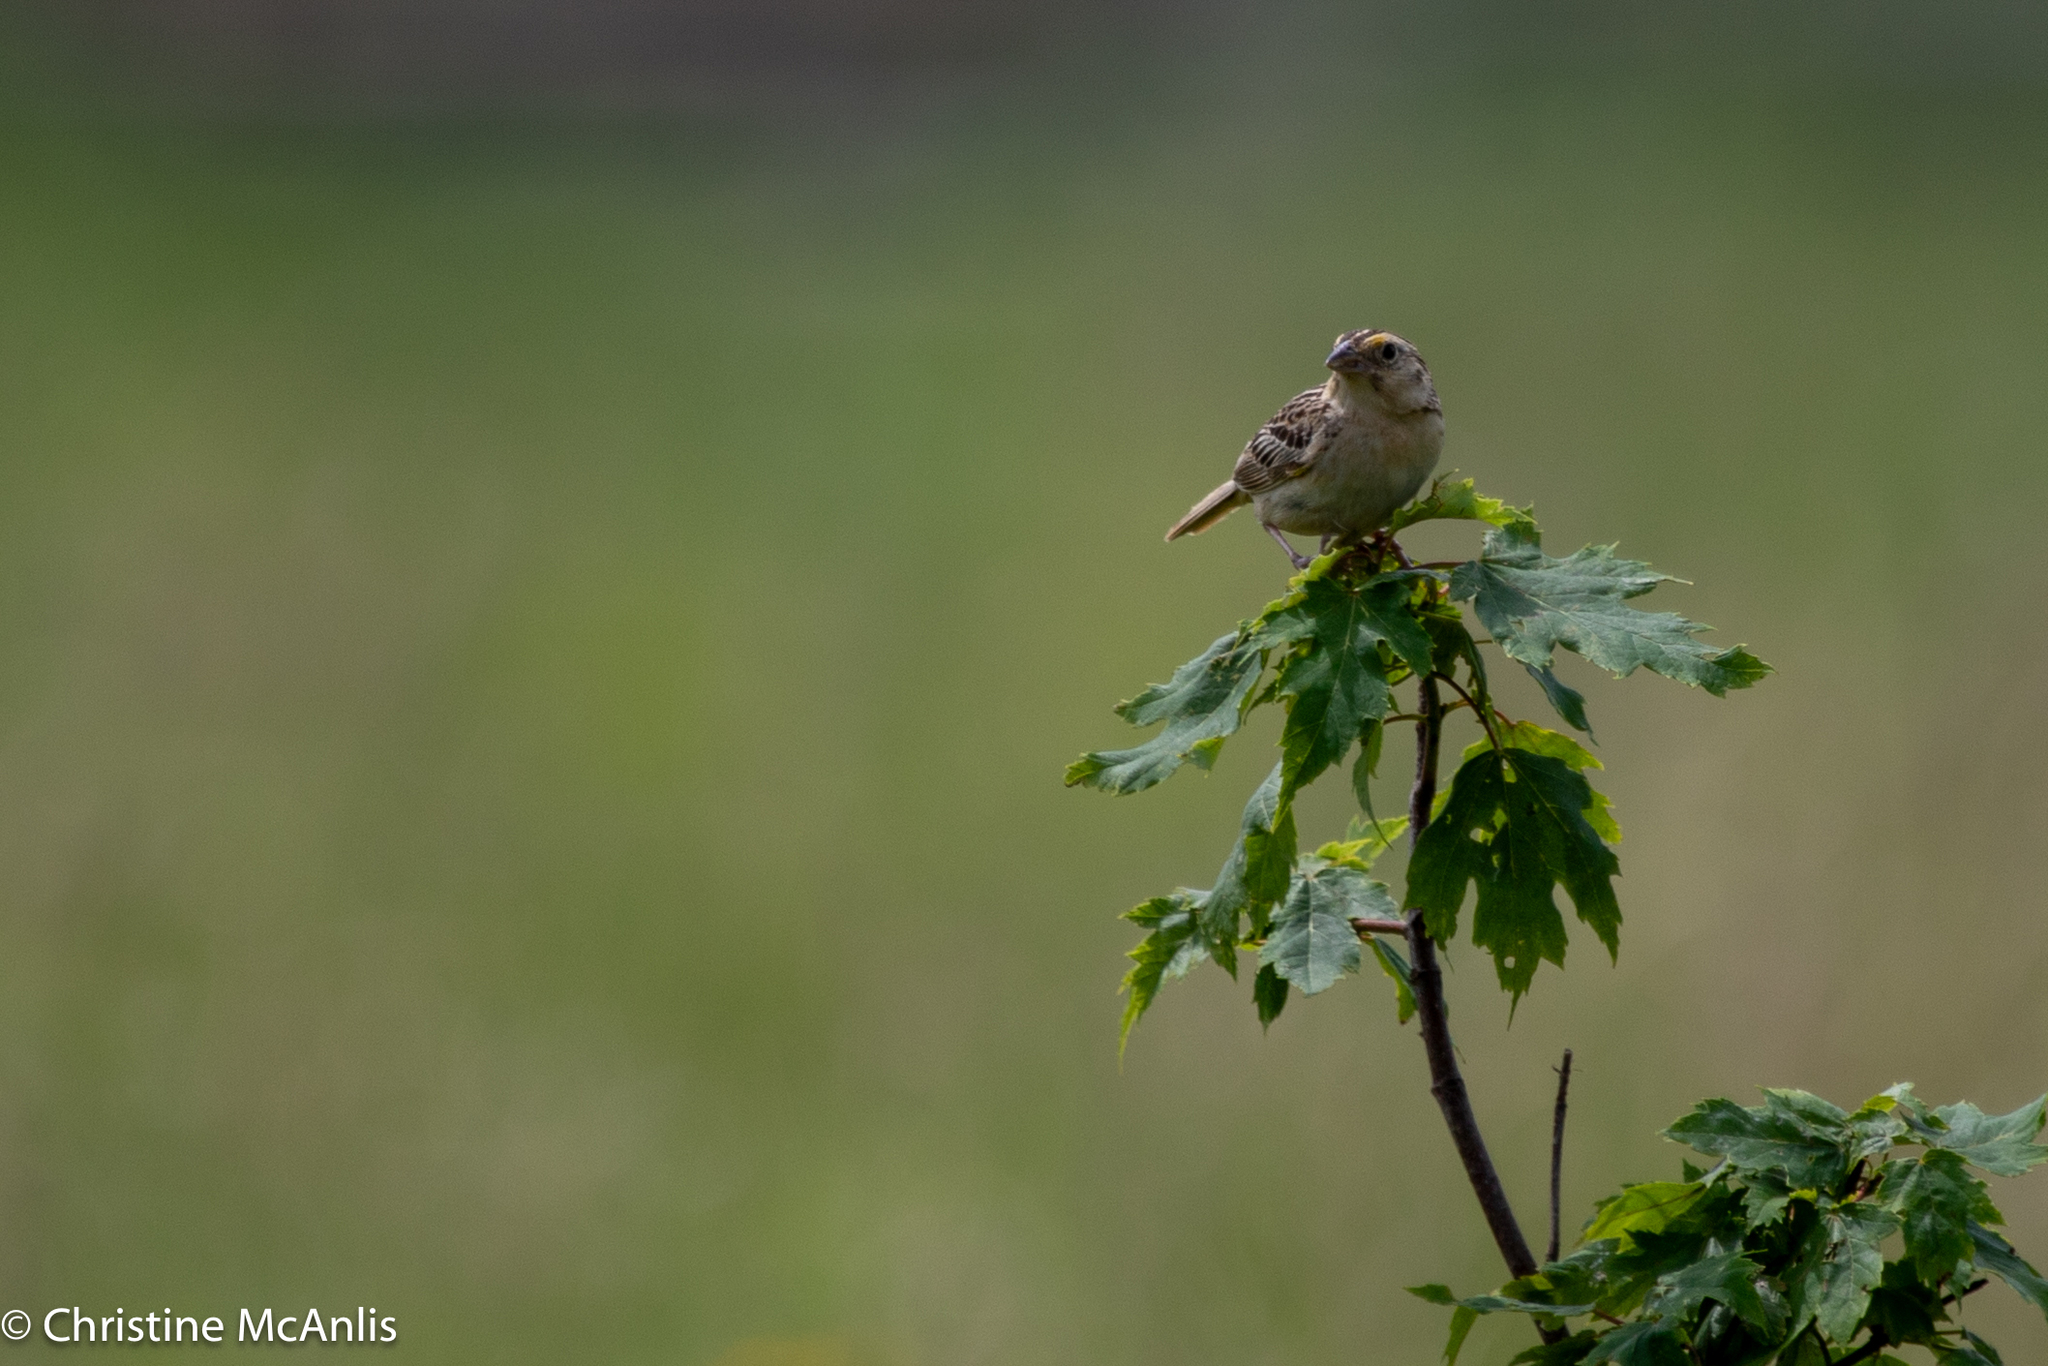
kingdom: Animalia
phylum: Chordata
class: Aves
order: Passeriformes
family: Passerellidae
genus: Ammodramus
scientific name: Ammodramus savannarum
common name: Grasshopper sparrow
